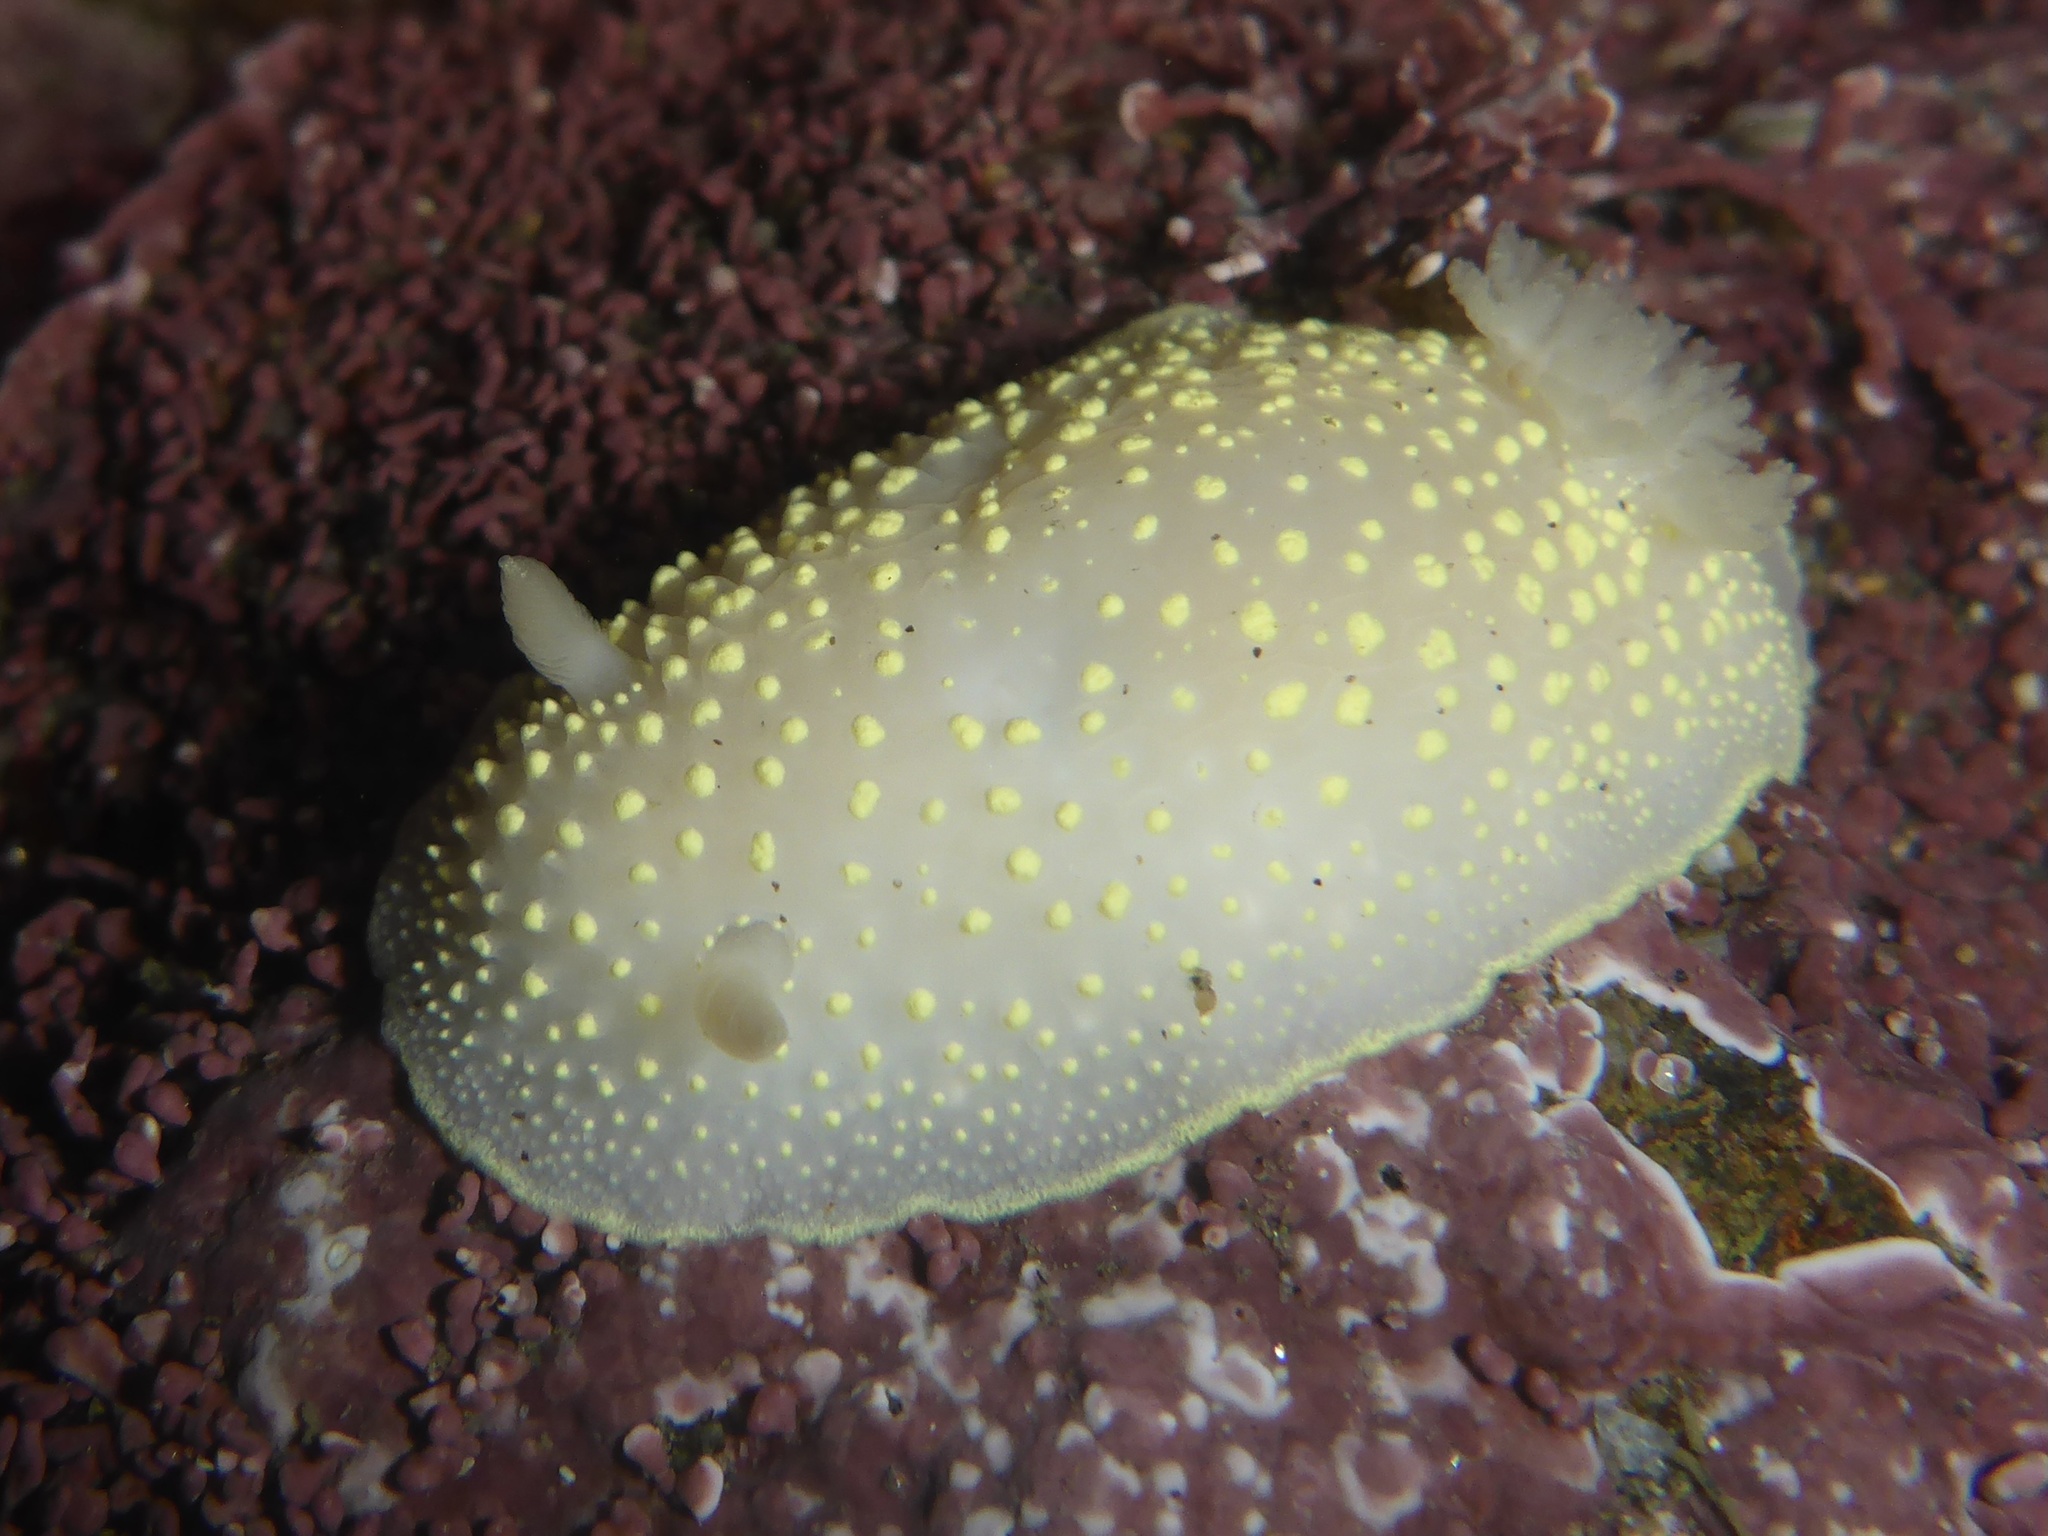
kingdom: Animalia
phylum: Mollusca
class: Gastropoda
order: Nudibranchia
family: Cadlinidae
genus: Cadlina
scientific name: Cadlina luteomarginata
